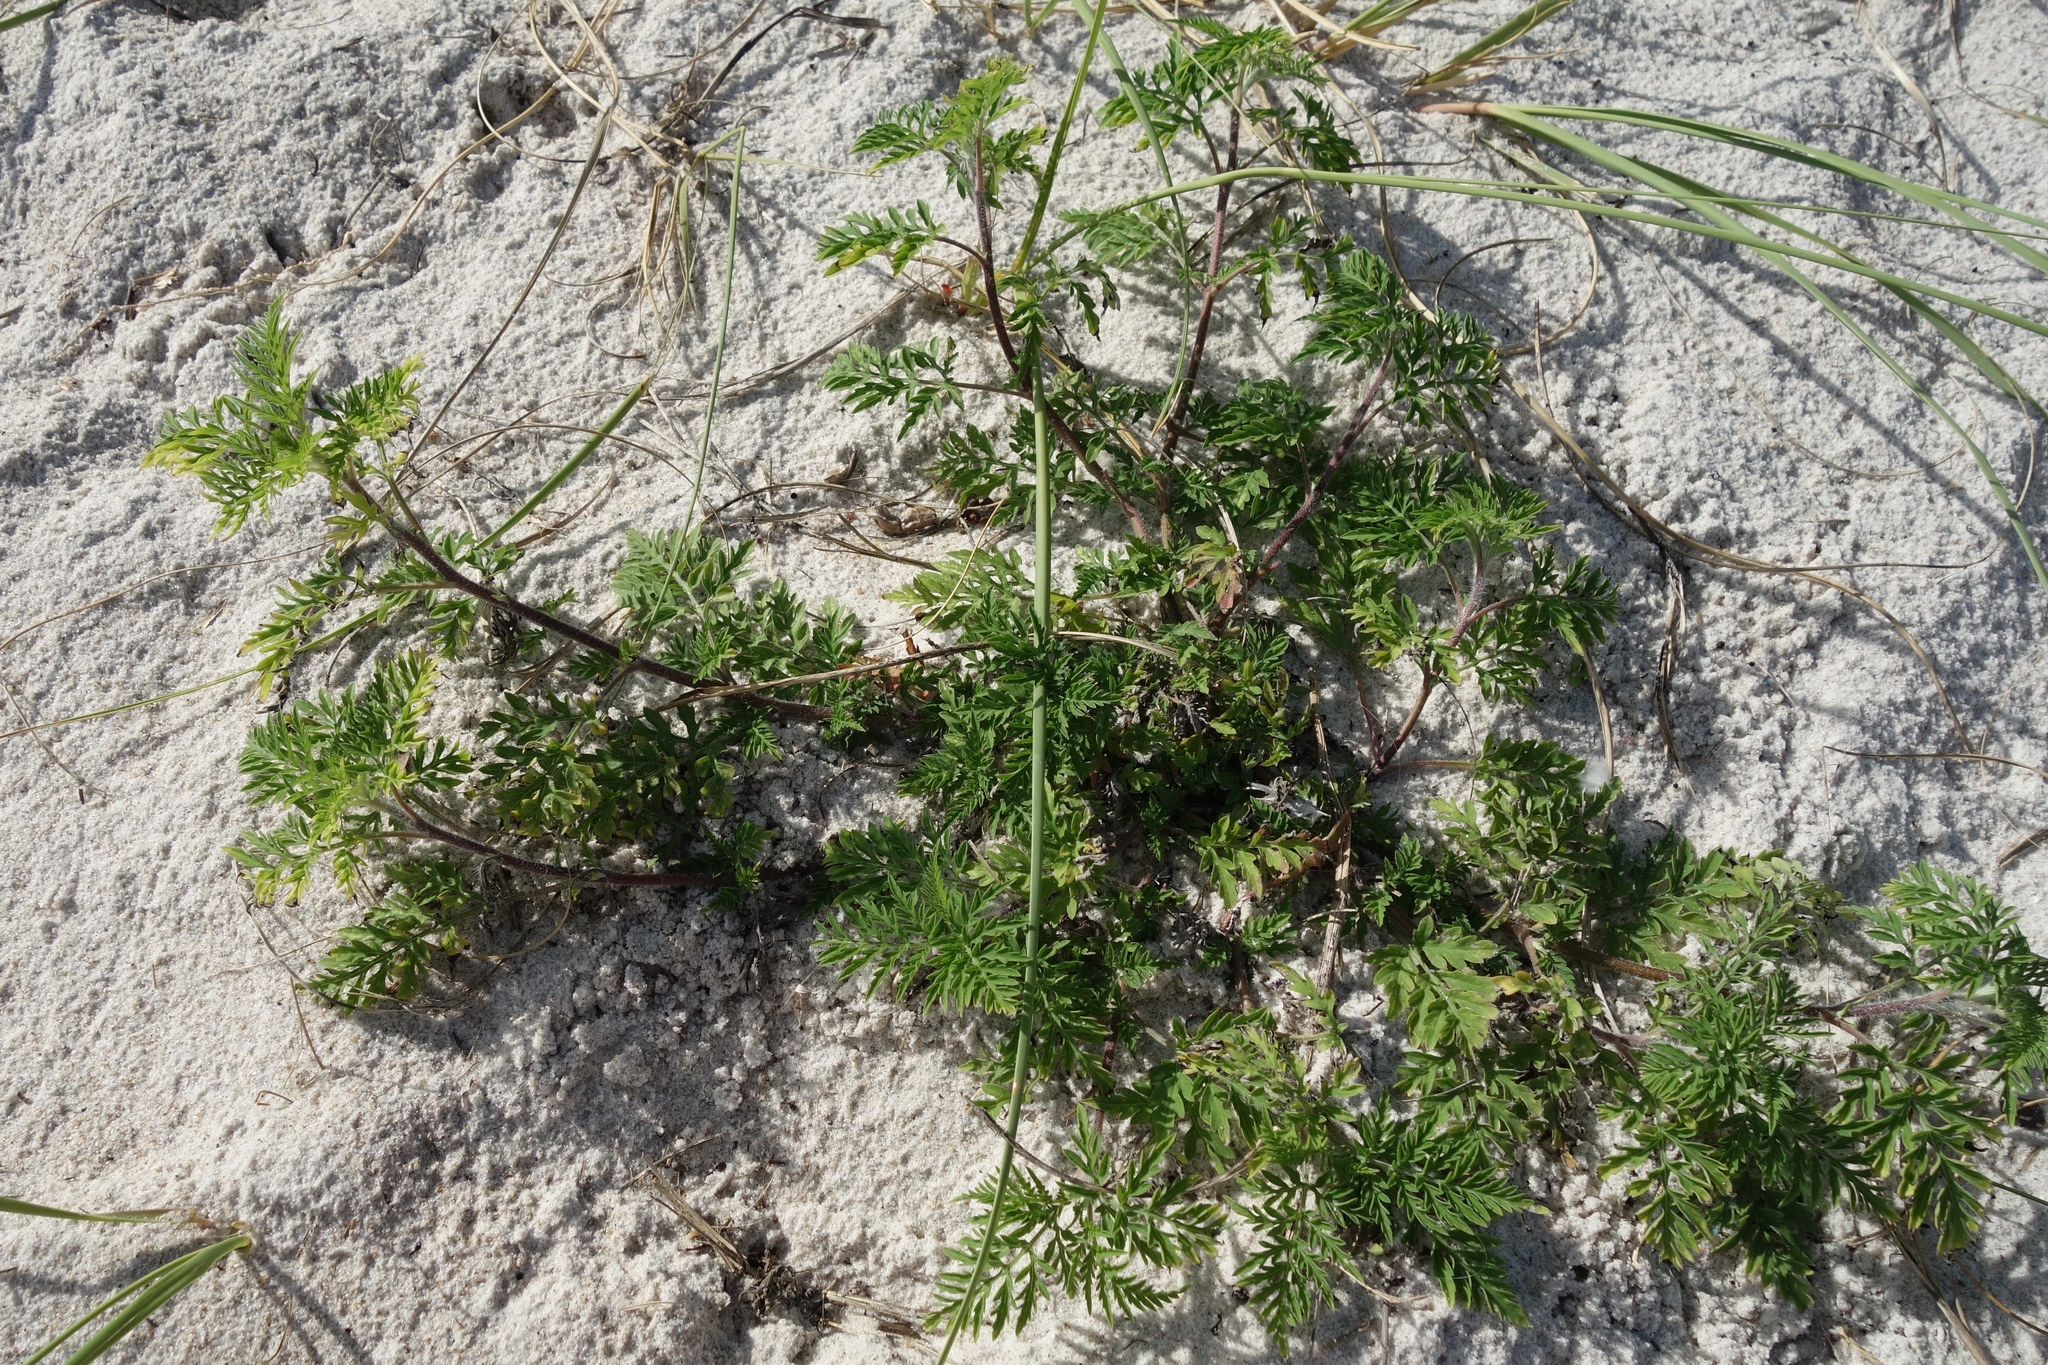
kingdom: Plantae
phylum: Tracheophyta
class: Magnoliopsida
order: Asterales
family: Asteraceae
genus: Ambrosia
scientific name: Ambrosia artemisiifolia
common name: Annual ragweed
